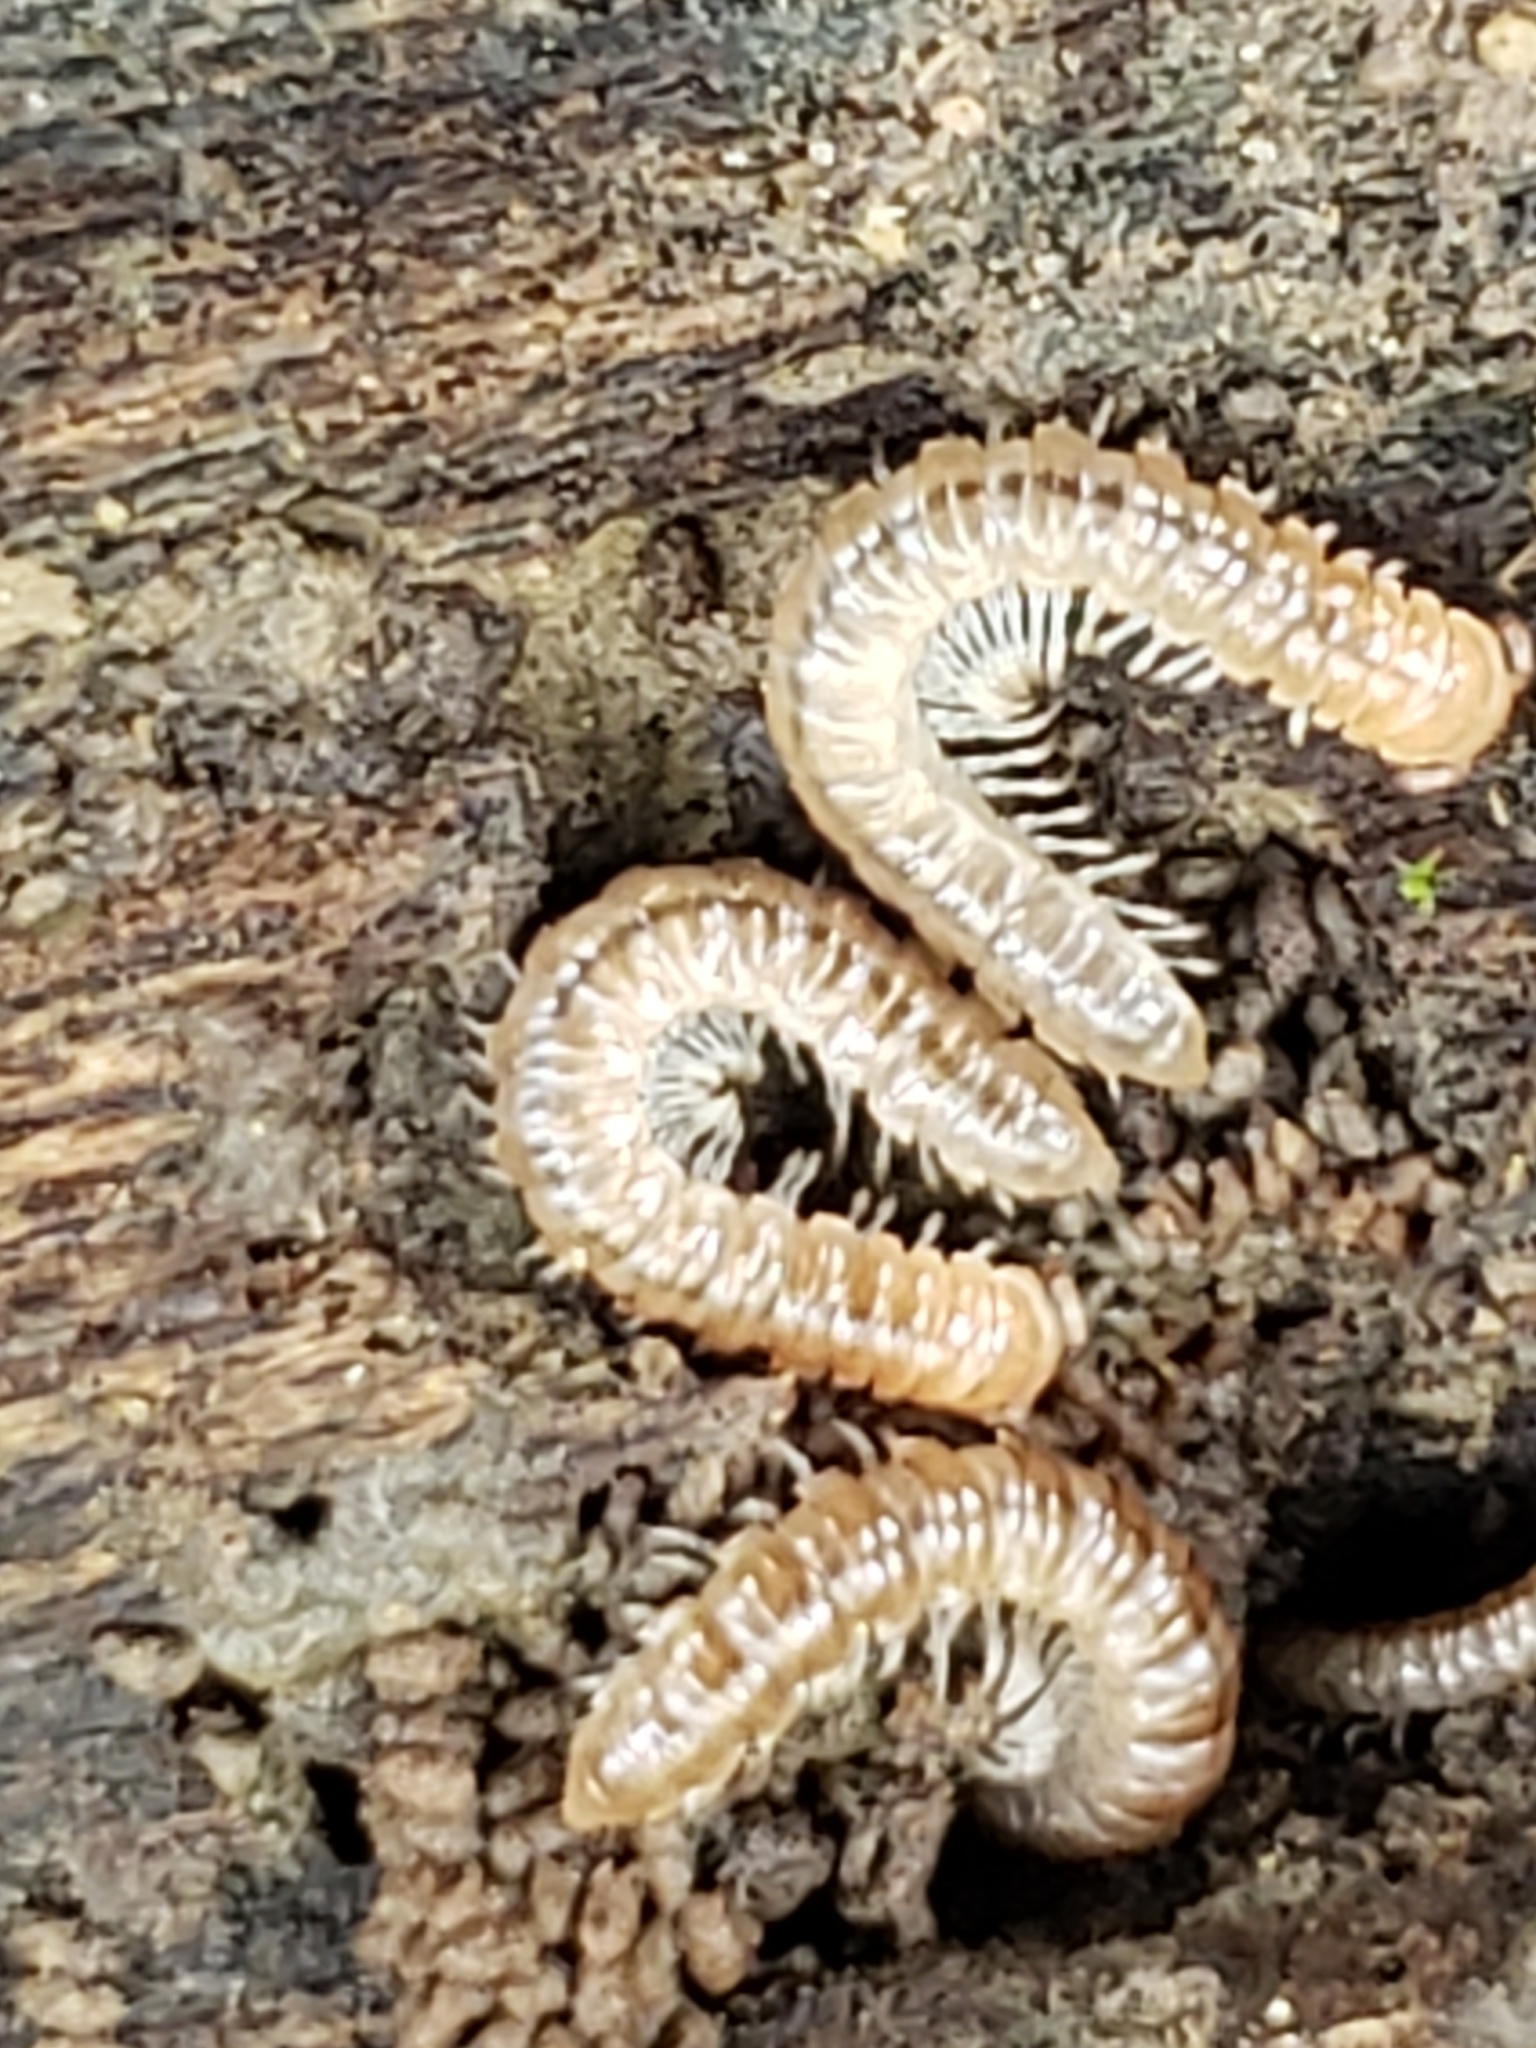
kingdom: Animalia
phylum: Arthropoda
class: Diplopoda
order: Polydesmida
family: Paradoxosomatidae
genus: Oxidus
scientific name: Oxidus gracilis
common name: Greenhouse millipede
